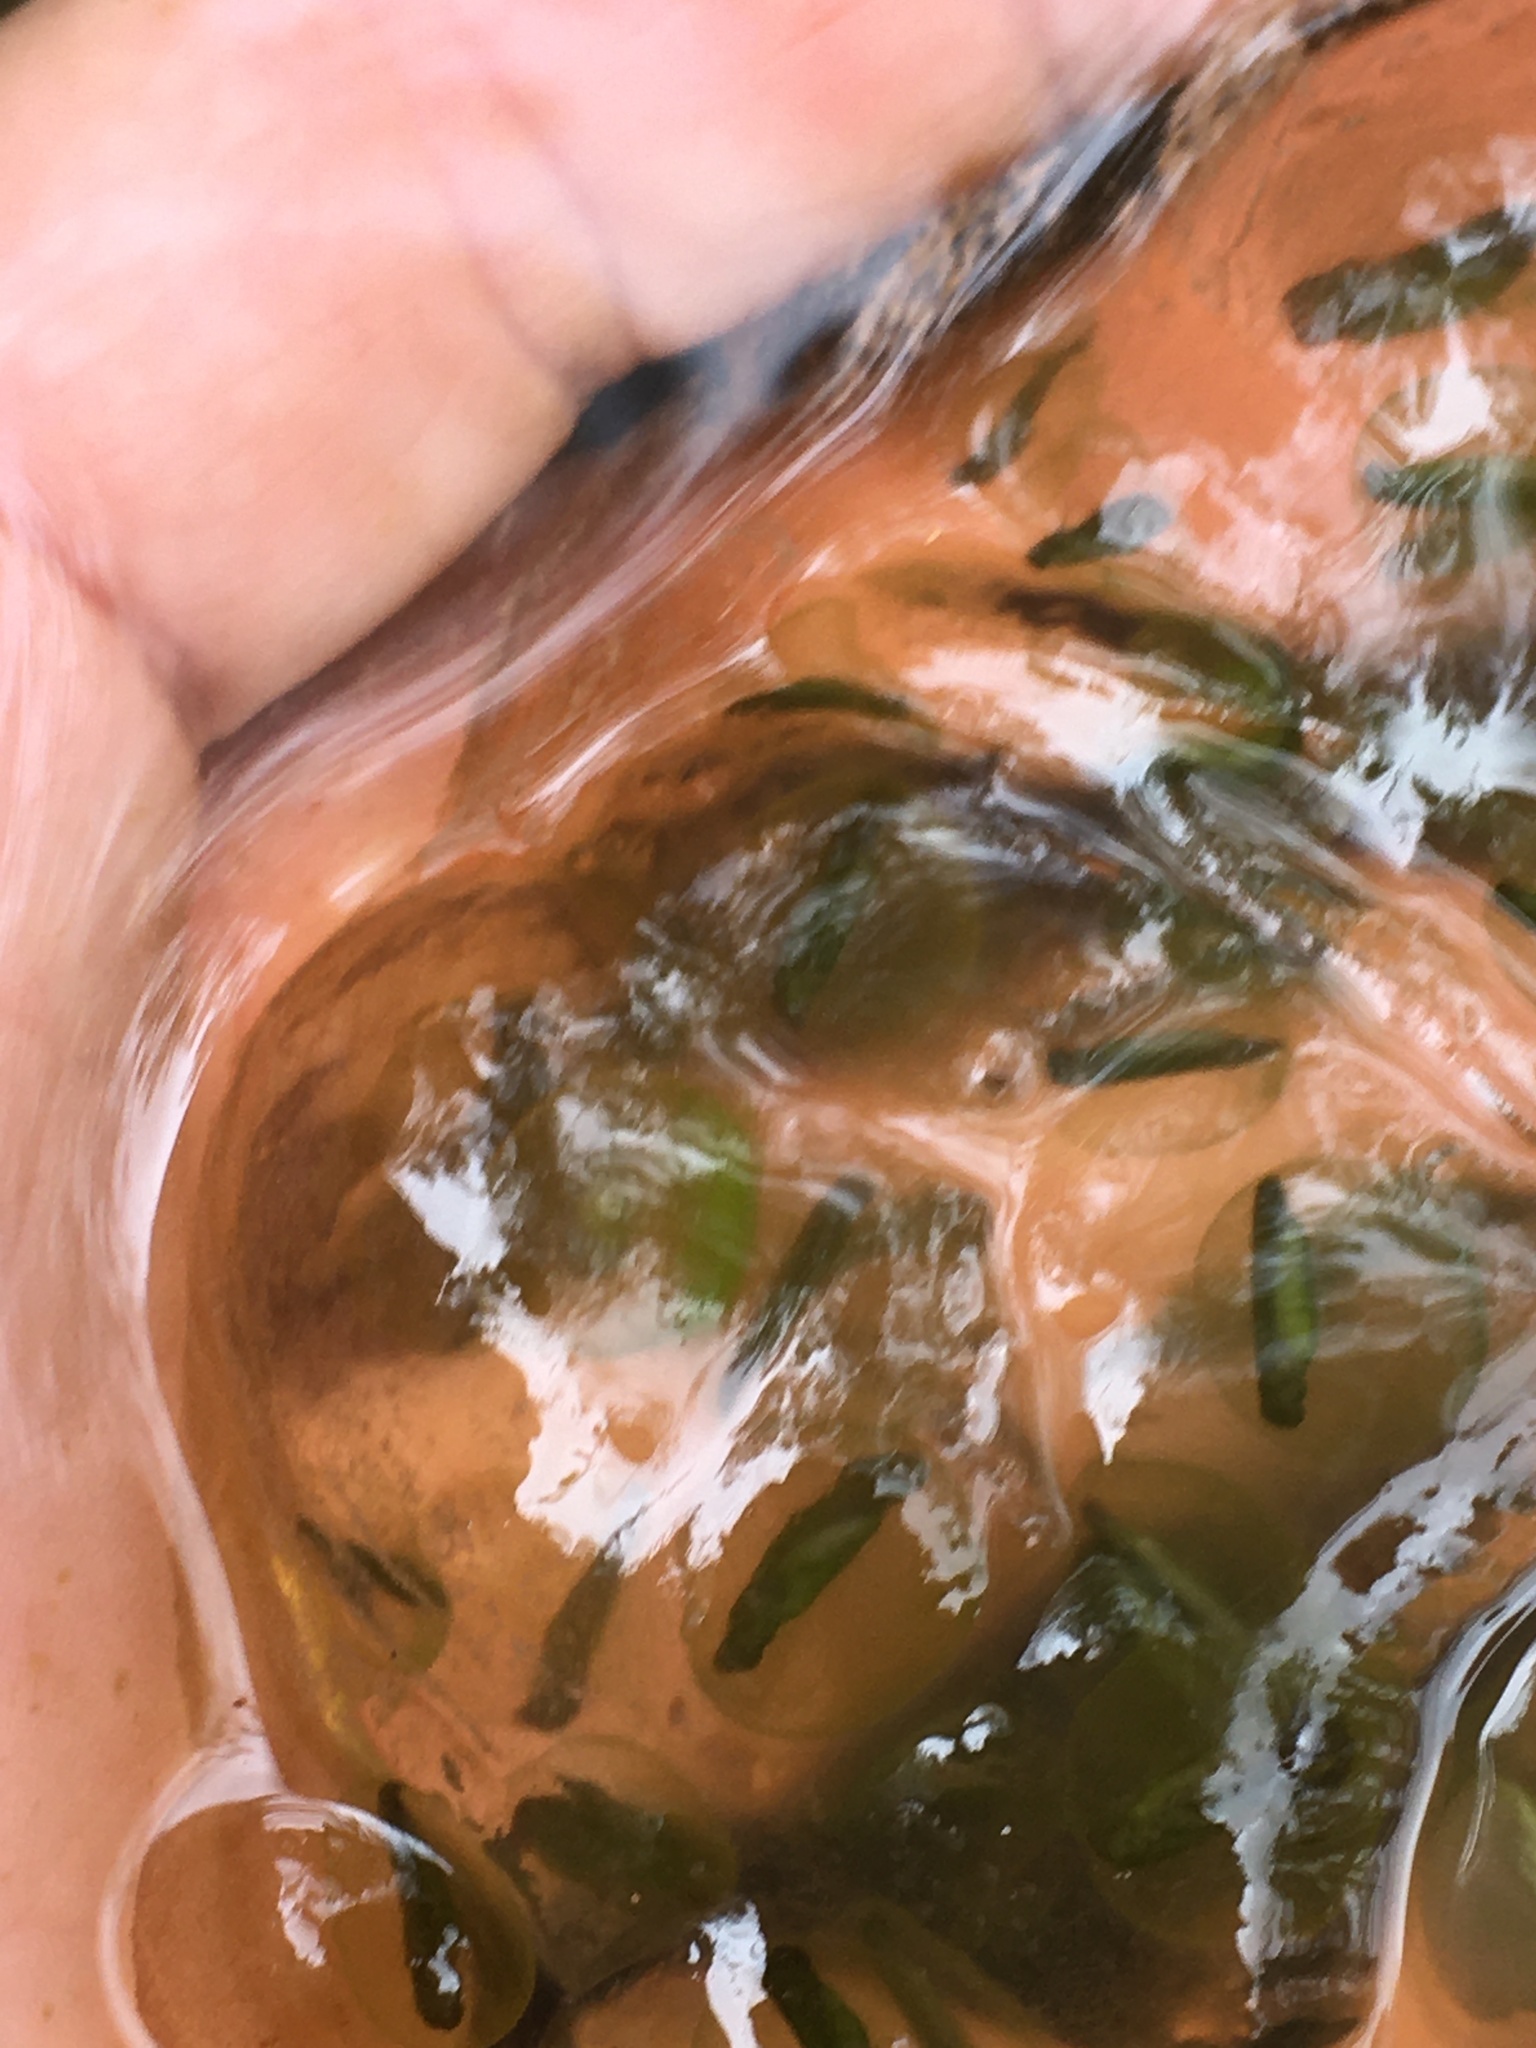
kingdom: Animalia
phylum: Chordata
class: Amphibia
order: Caudata
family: Ambystomatidae
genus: Ambystoma
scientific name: Ambystoma maculatum
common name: Spotted salamander
